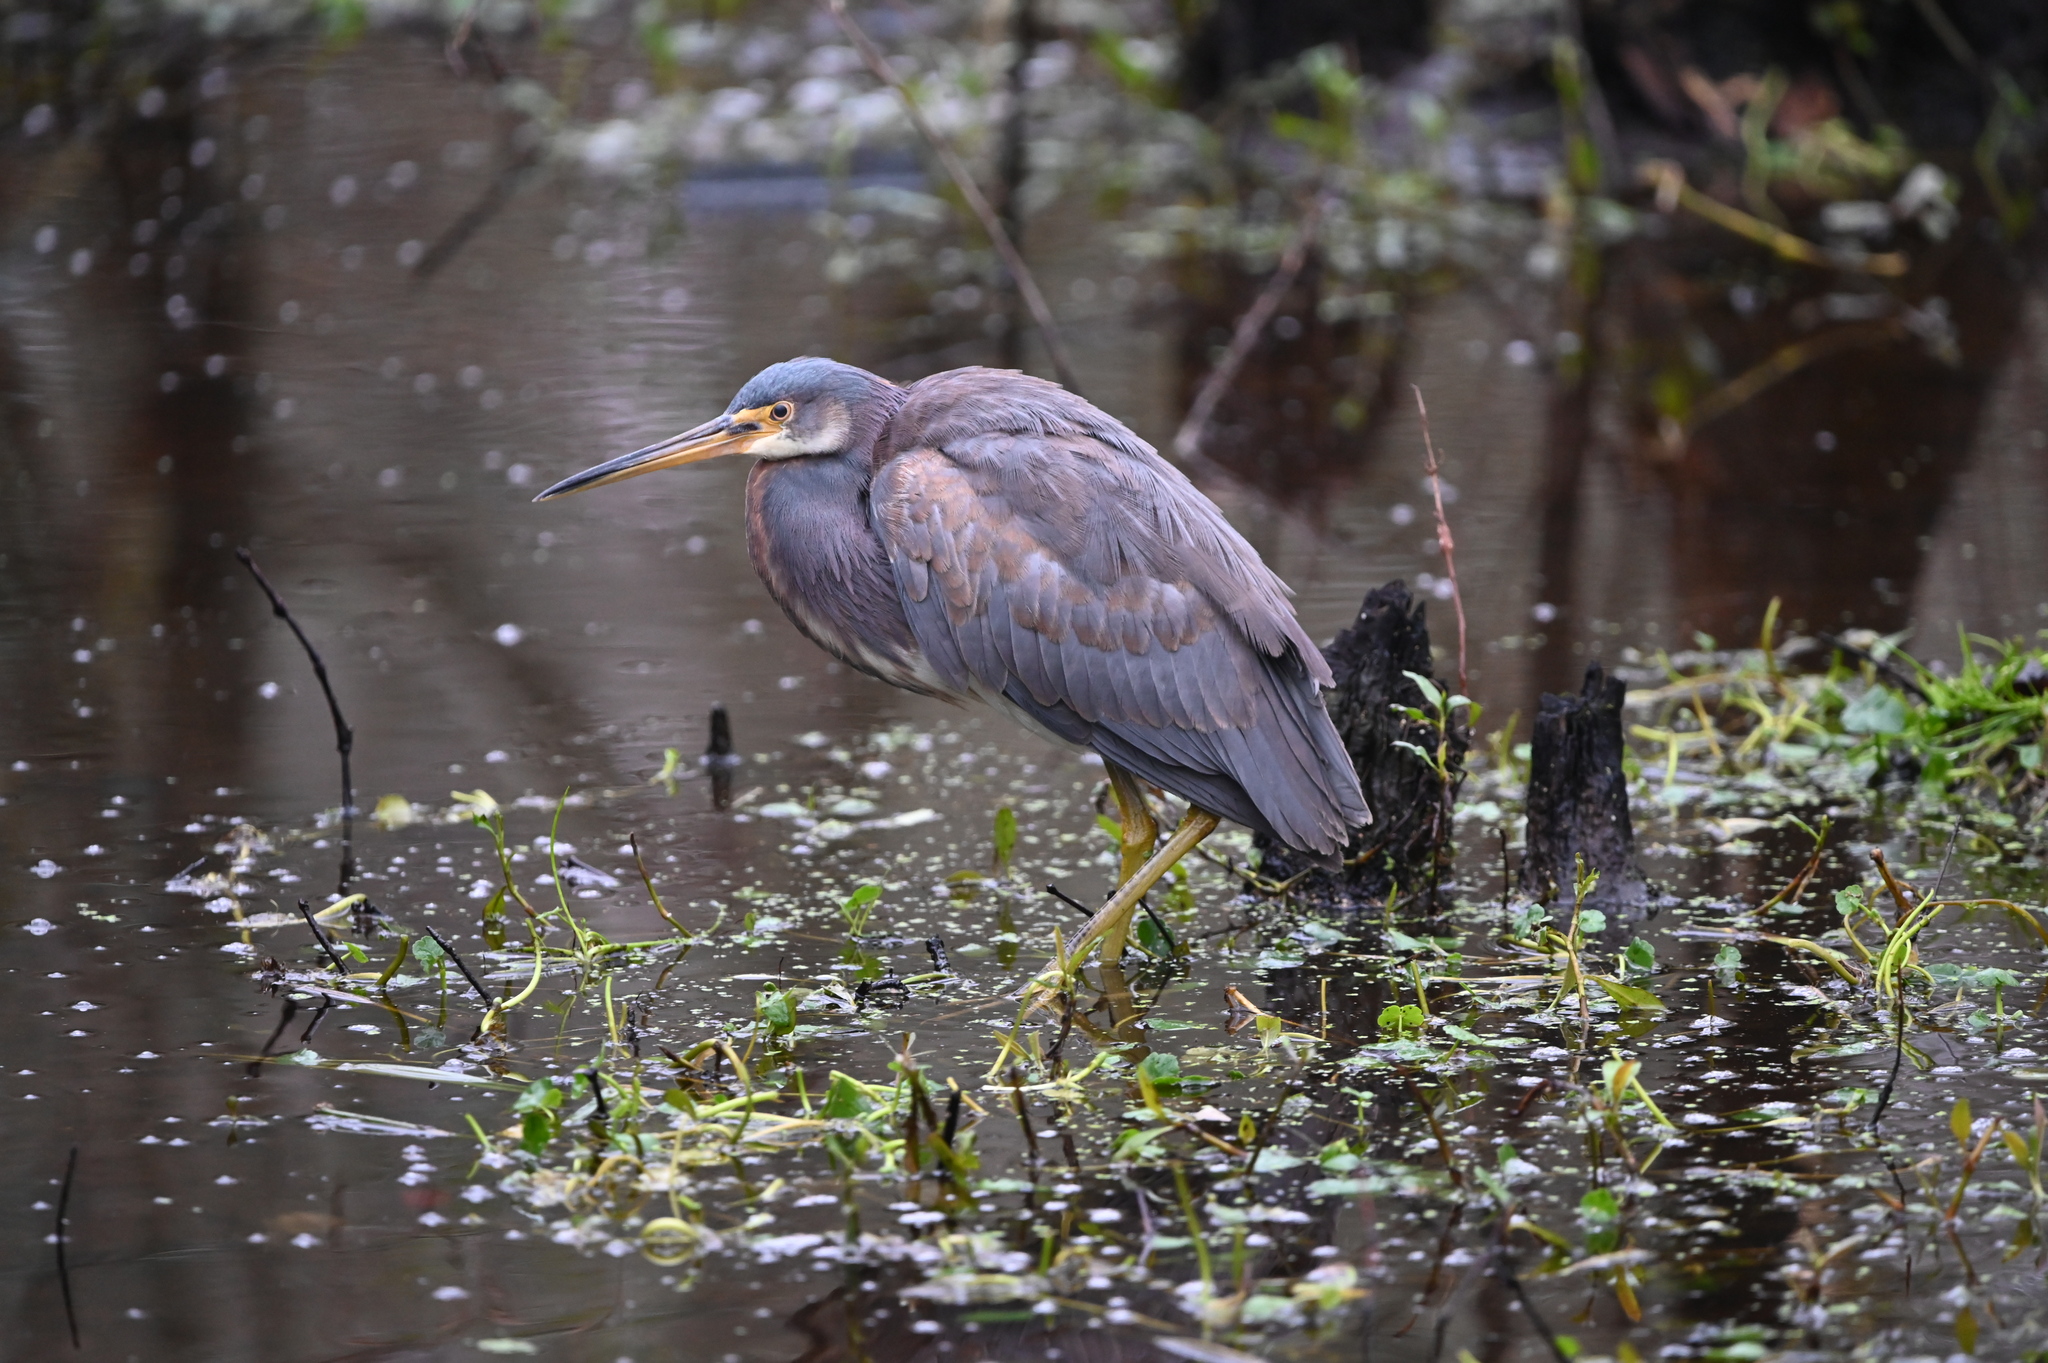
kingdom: Animalia
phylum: Chordata
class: Aves
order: Pelecaniformes
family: Ardeidae
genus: Egretta
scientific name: Egretta tricolor
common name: Tricolored heron
